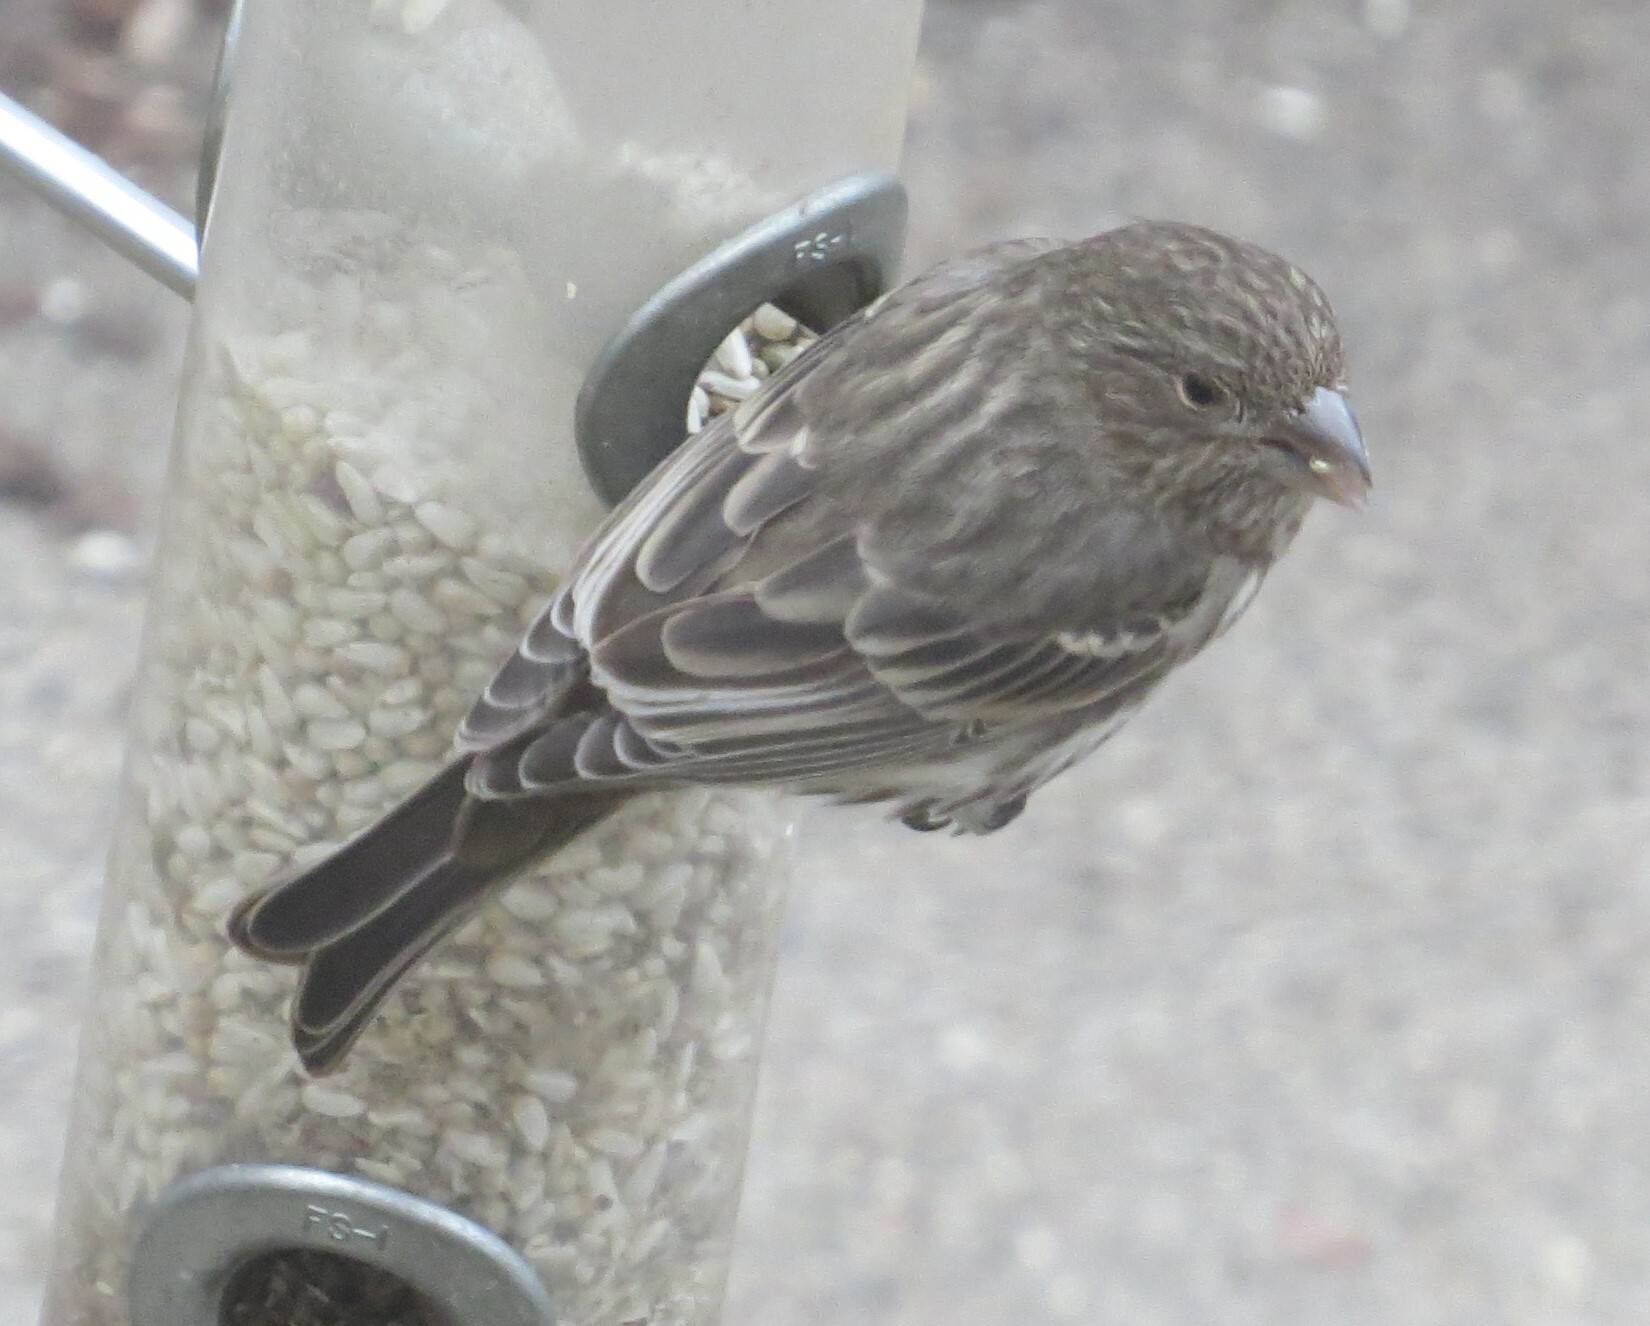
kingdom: Animalia
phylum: Chordata
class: Aves
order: Passeriformes
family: Fringillidae
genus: Haemorhous
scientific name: Haemorhous mexicanus
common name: House finch
